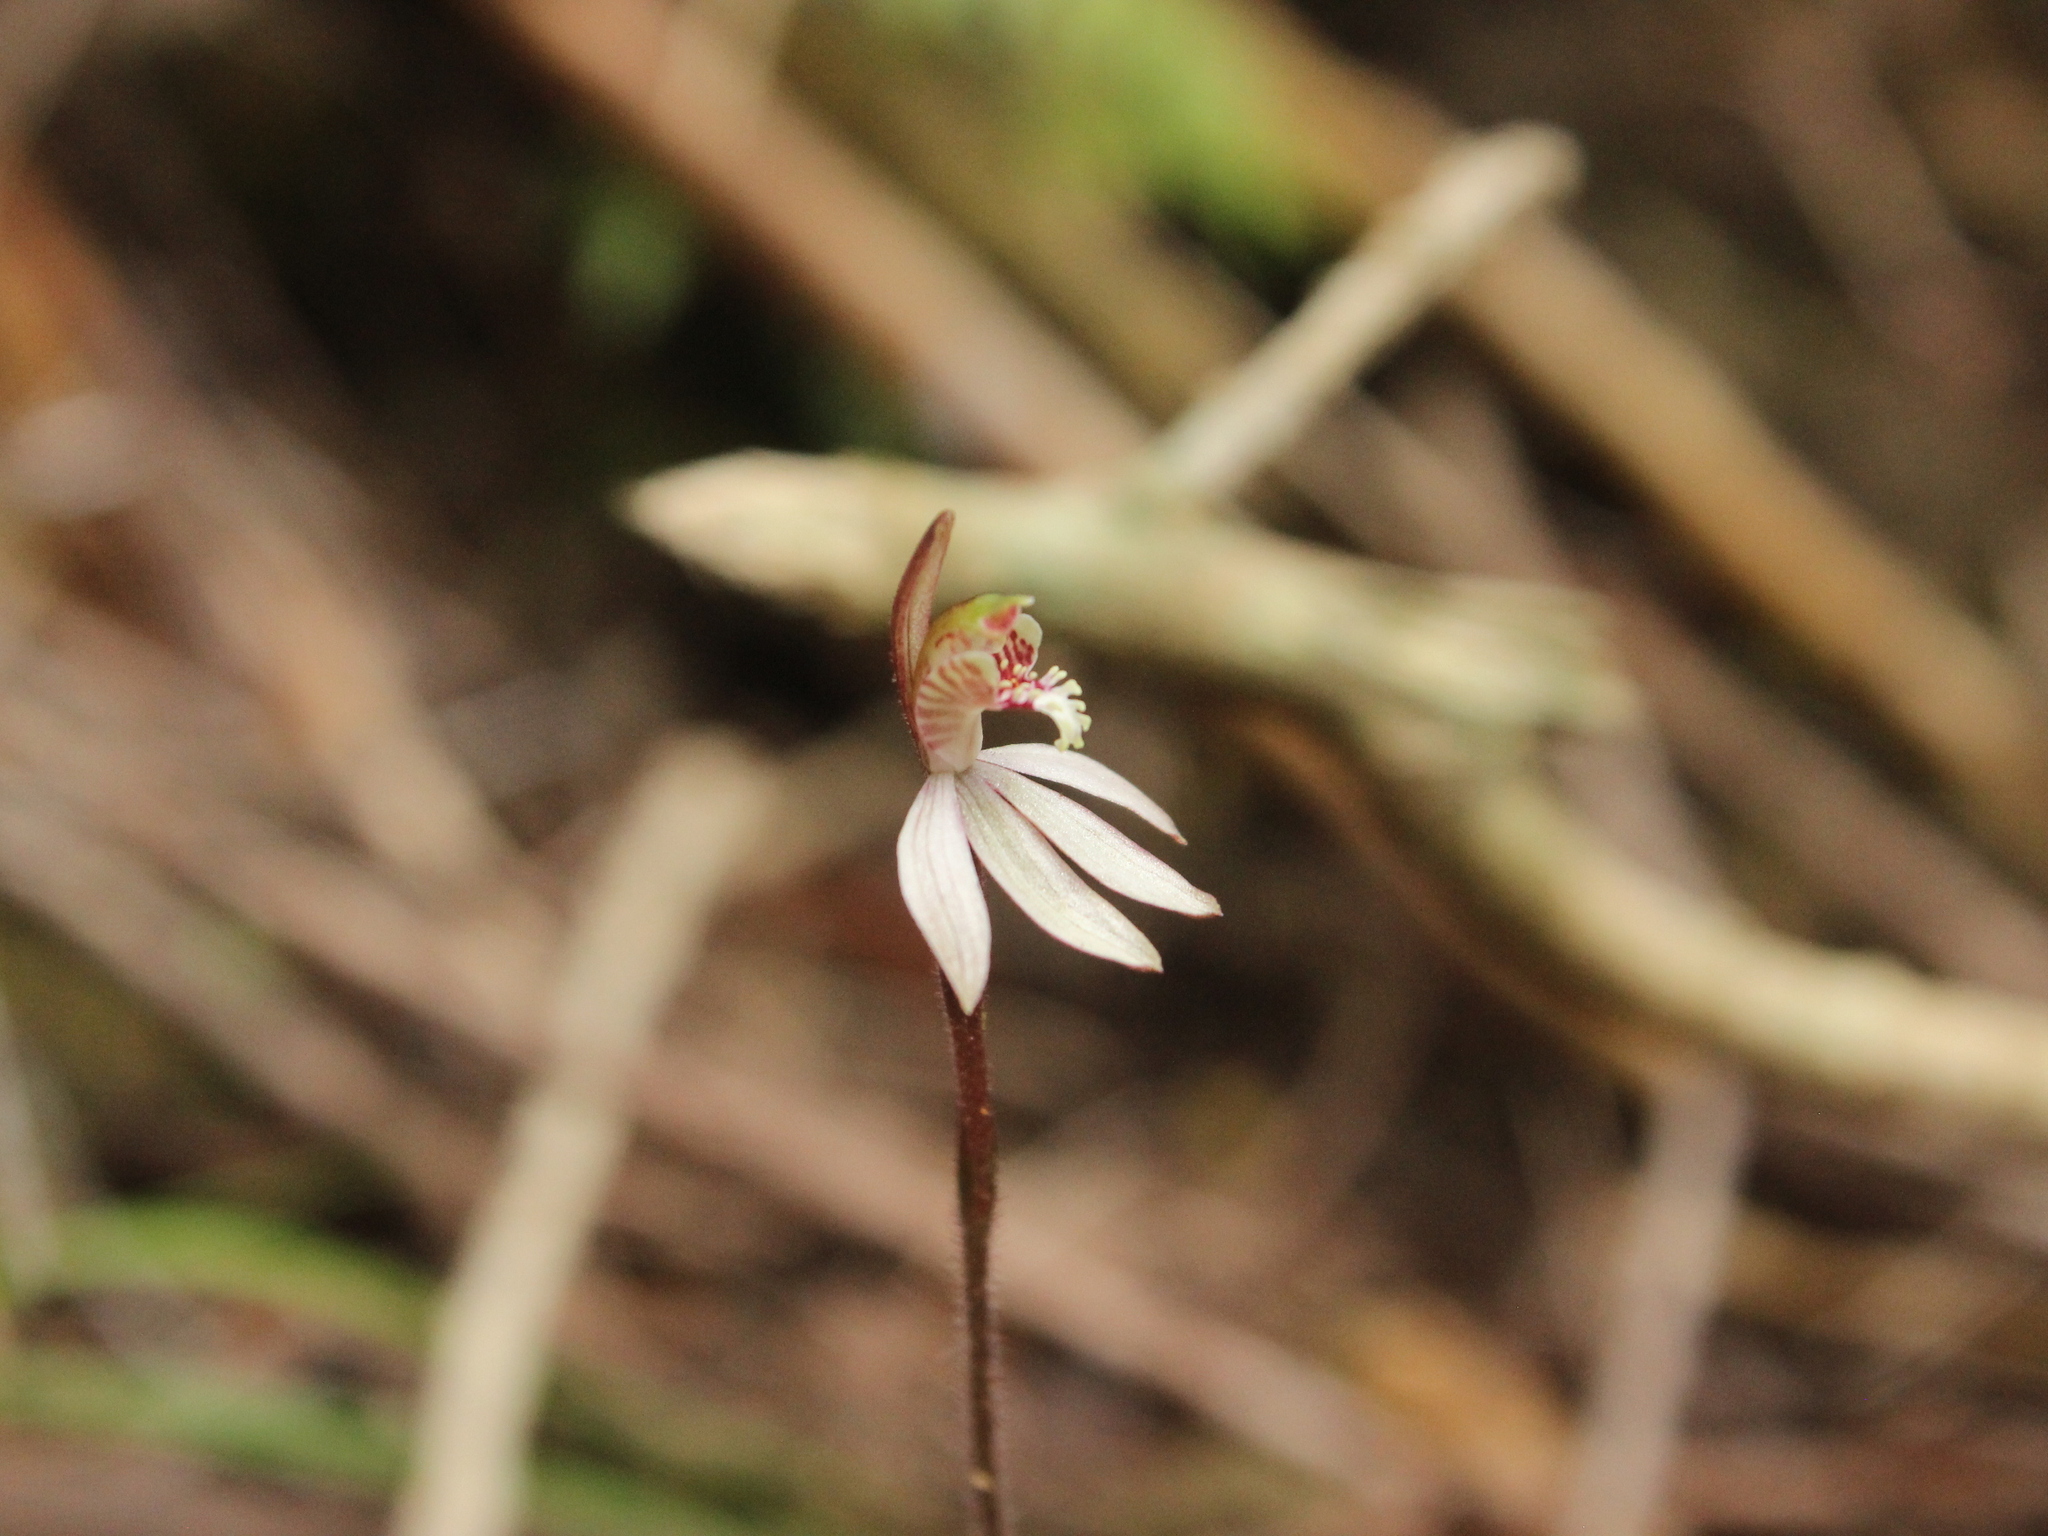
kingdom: Plantae
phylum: Tracheophyta
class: Liliopsida
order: Asparagales
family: Orchidaceae
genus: Caladenia
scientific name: Caladenia chlorostyla
